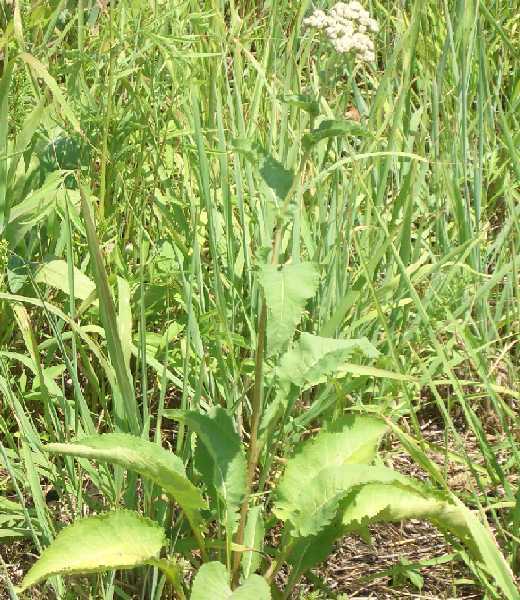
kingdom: Plantae
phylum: Tracheophyta
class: Magnoliopsida
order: Asterales
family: Asteraceae
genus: Parthenium
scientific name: Parthenium integrifolium
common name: American feverfew
